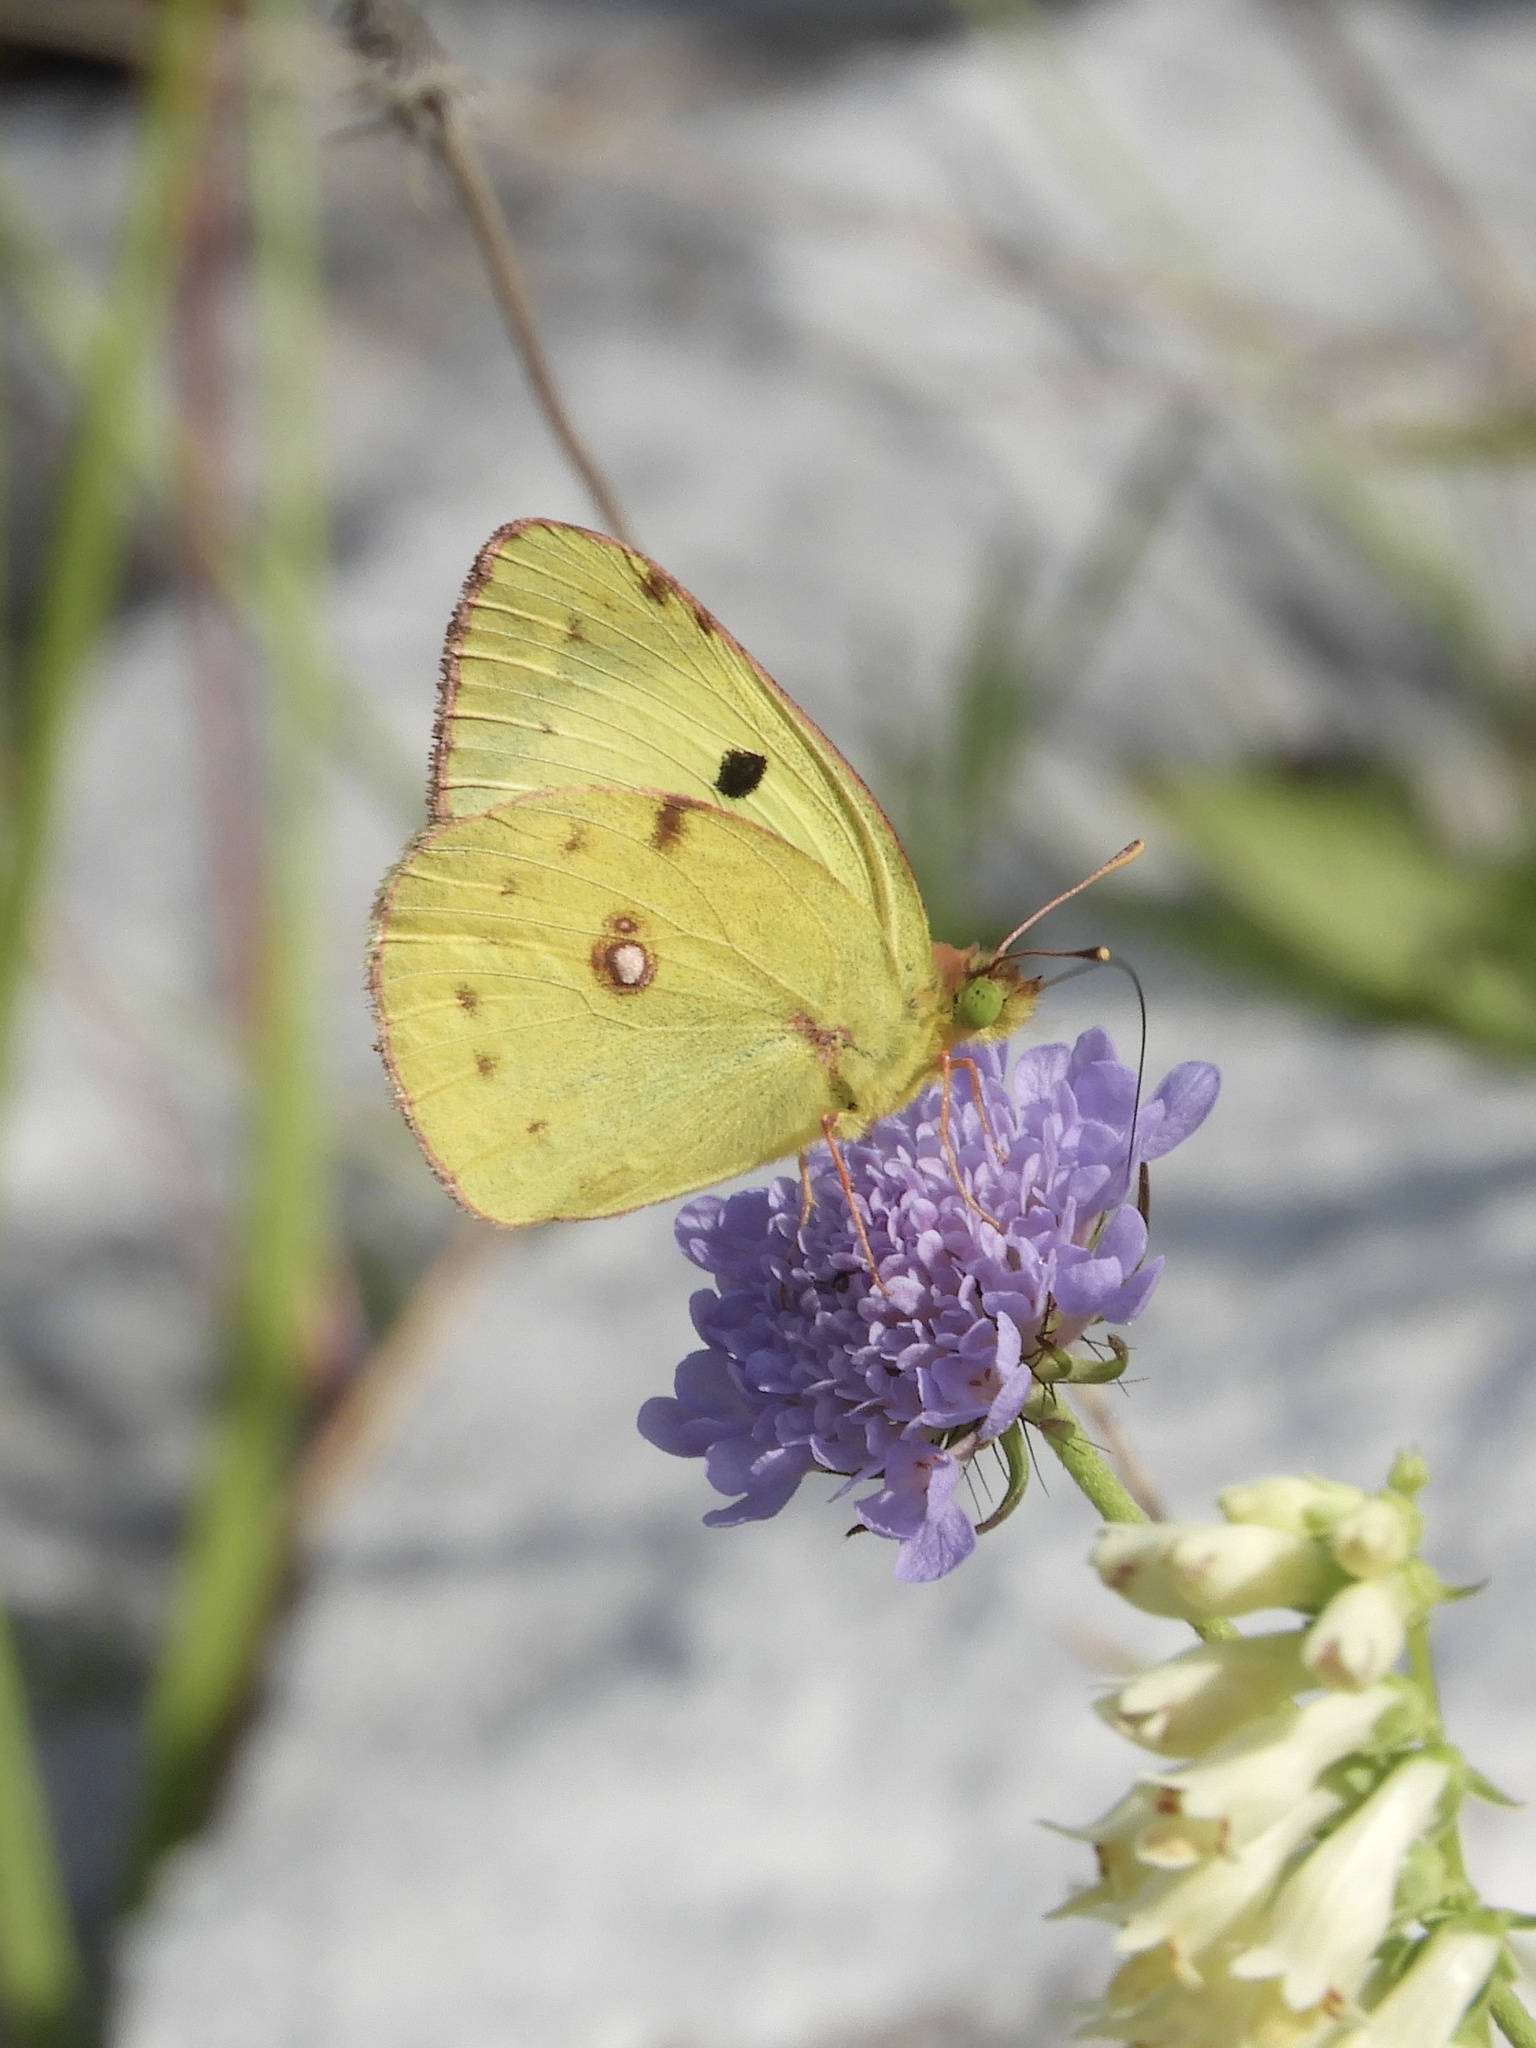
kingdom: Animalia
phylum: Arthropoda
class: Insecta
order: Lepidoptera
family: Pieridae
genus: Colias
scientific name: Colias alfacariensis
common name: Berger's clouded yellow
